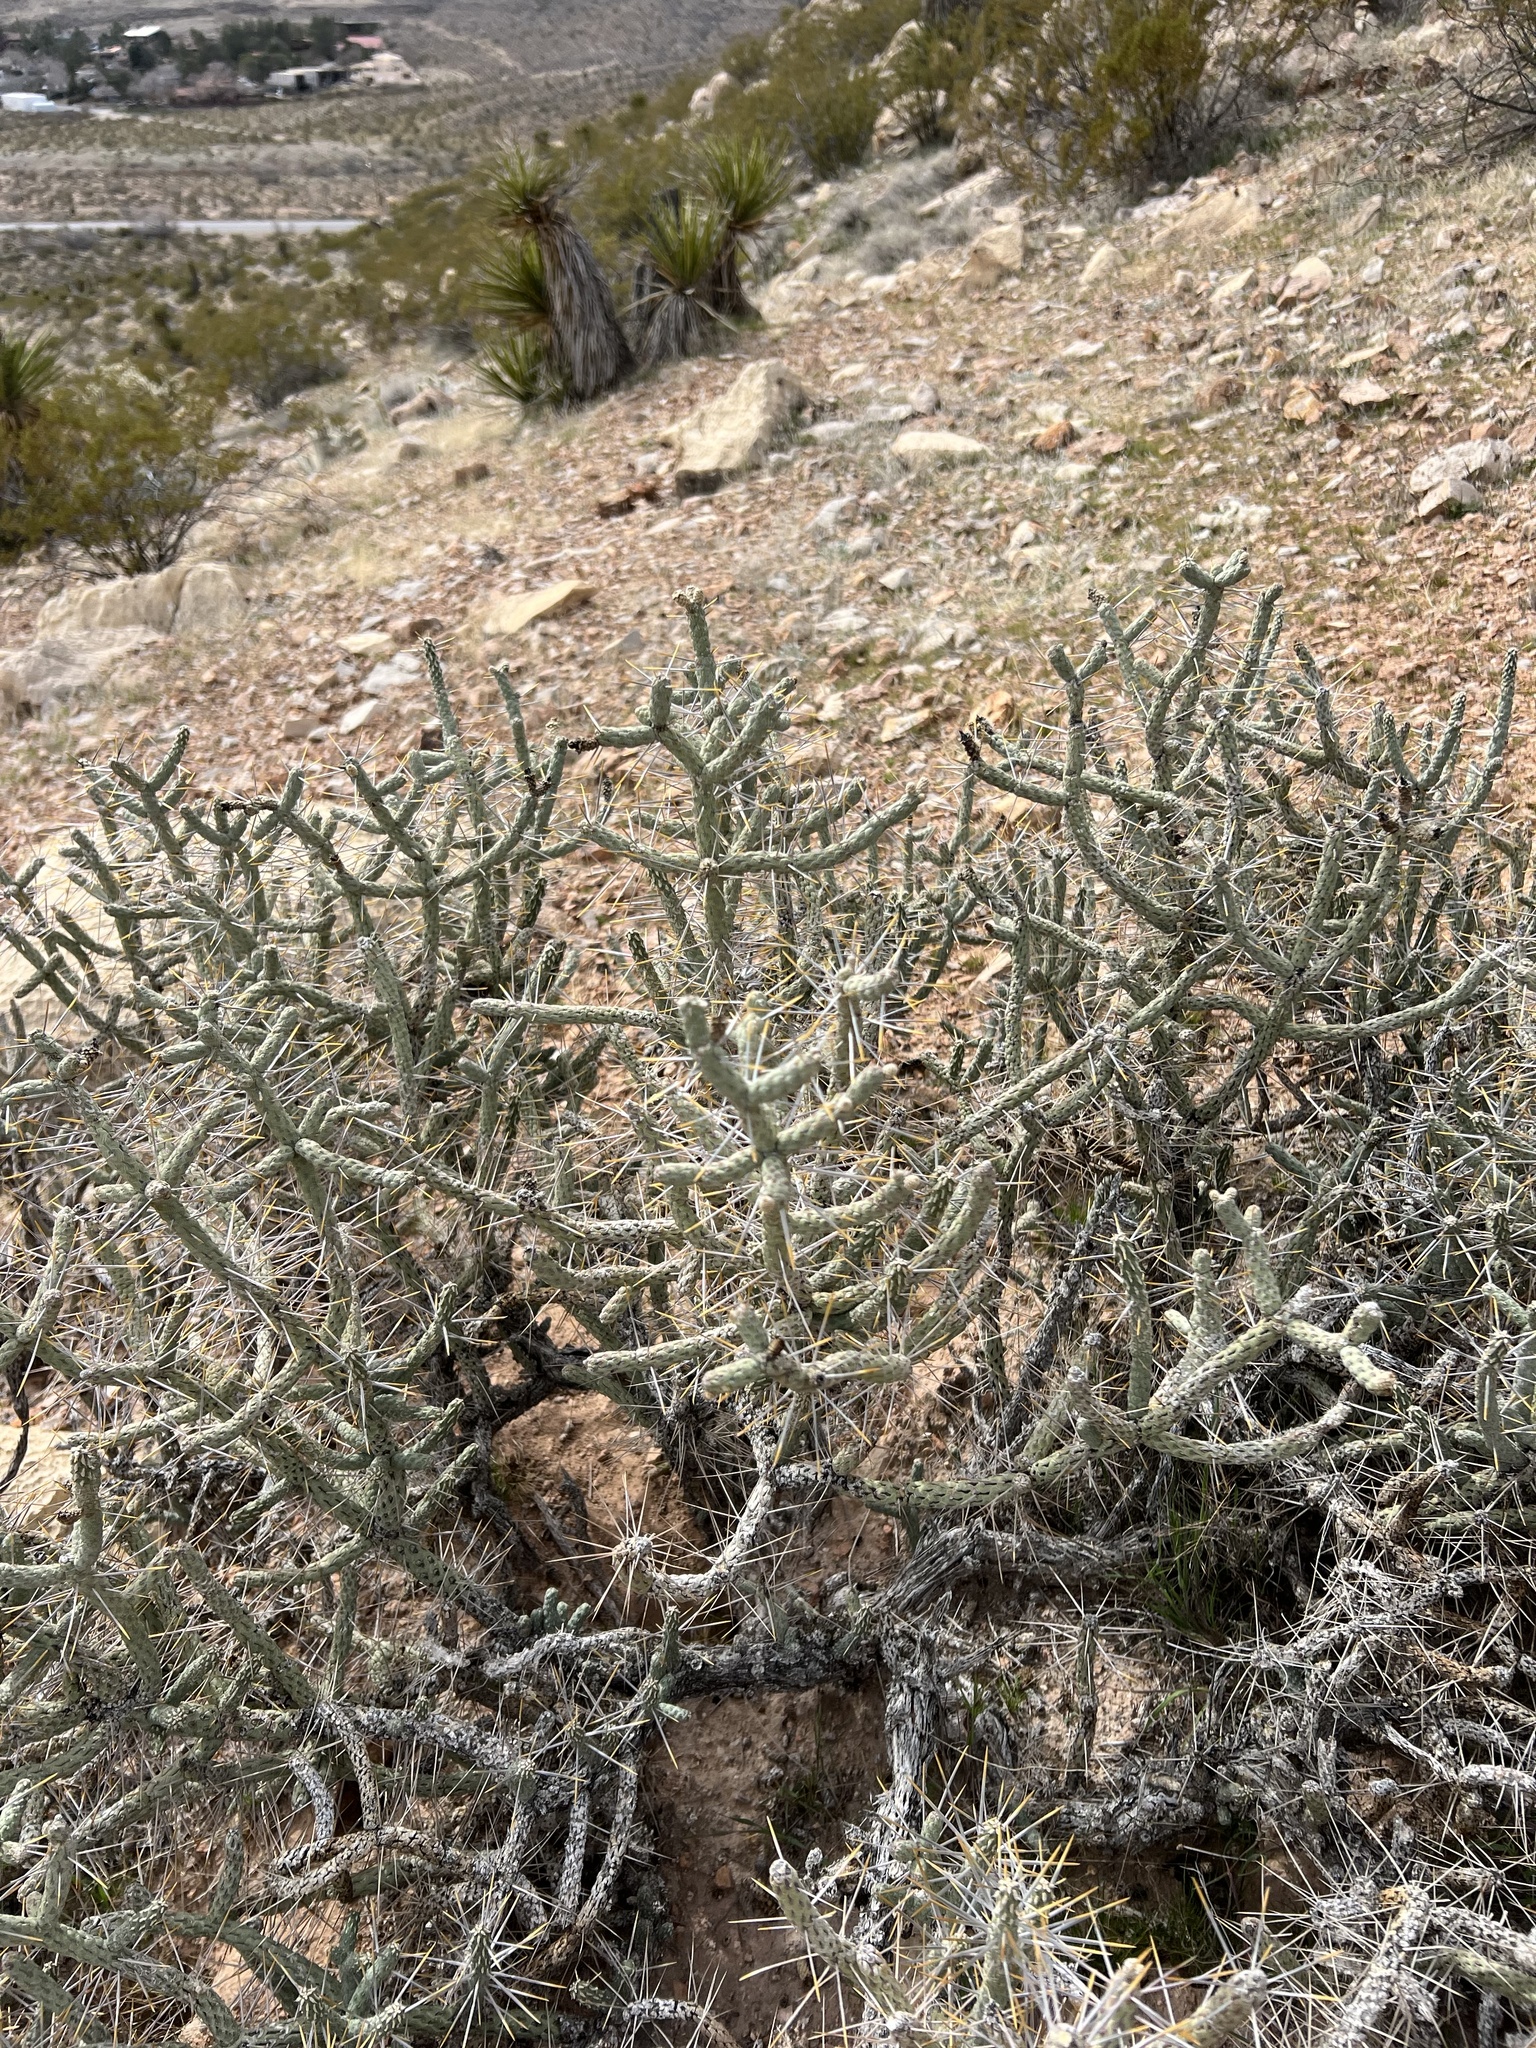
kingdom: Plantae
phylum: Tracheophyta
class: Magnoliopsida
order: Caryophyllales
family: Cactaceae
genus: Cylindropuntia
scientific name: Cylindropuntia ramosissima
